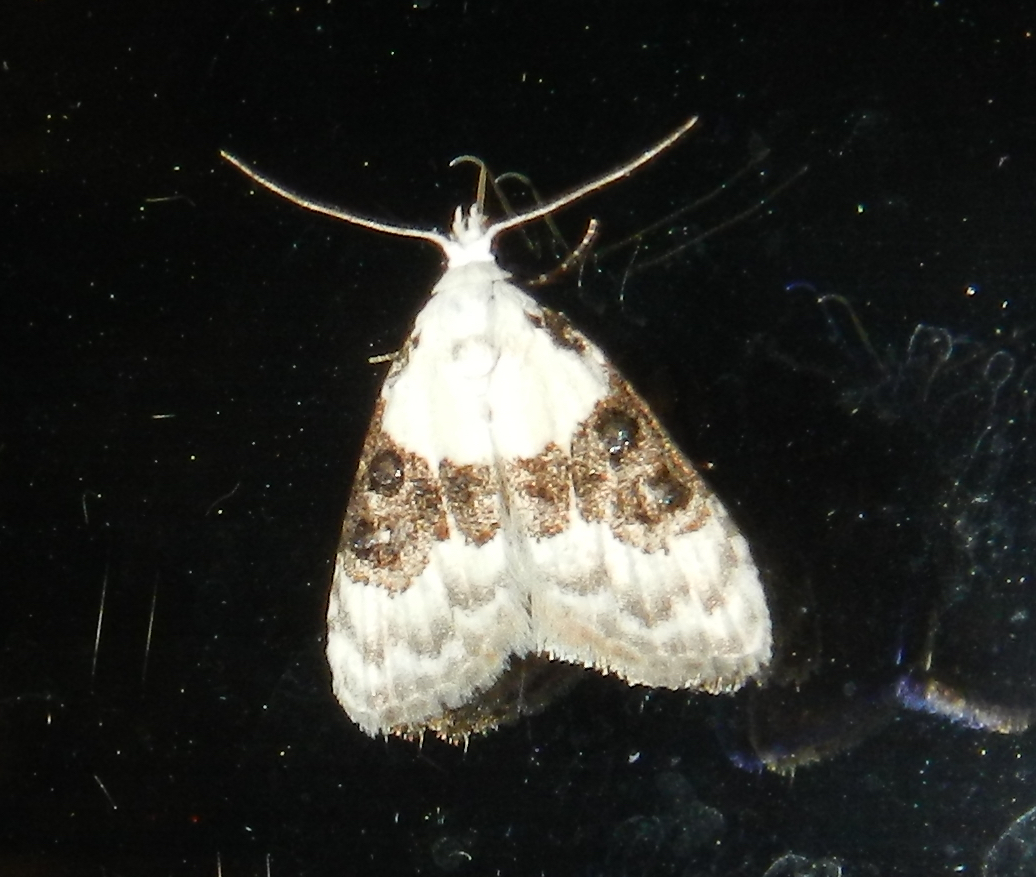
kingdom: Animalia
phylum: Arthropoda
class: Insecta
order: Lepidoptera
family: Nolidae
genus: Nola
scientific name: Nola pustulata
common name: Sharp-blotched nola moth
